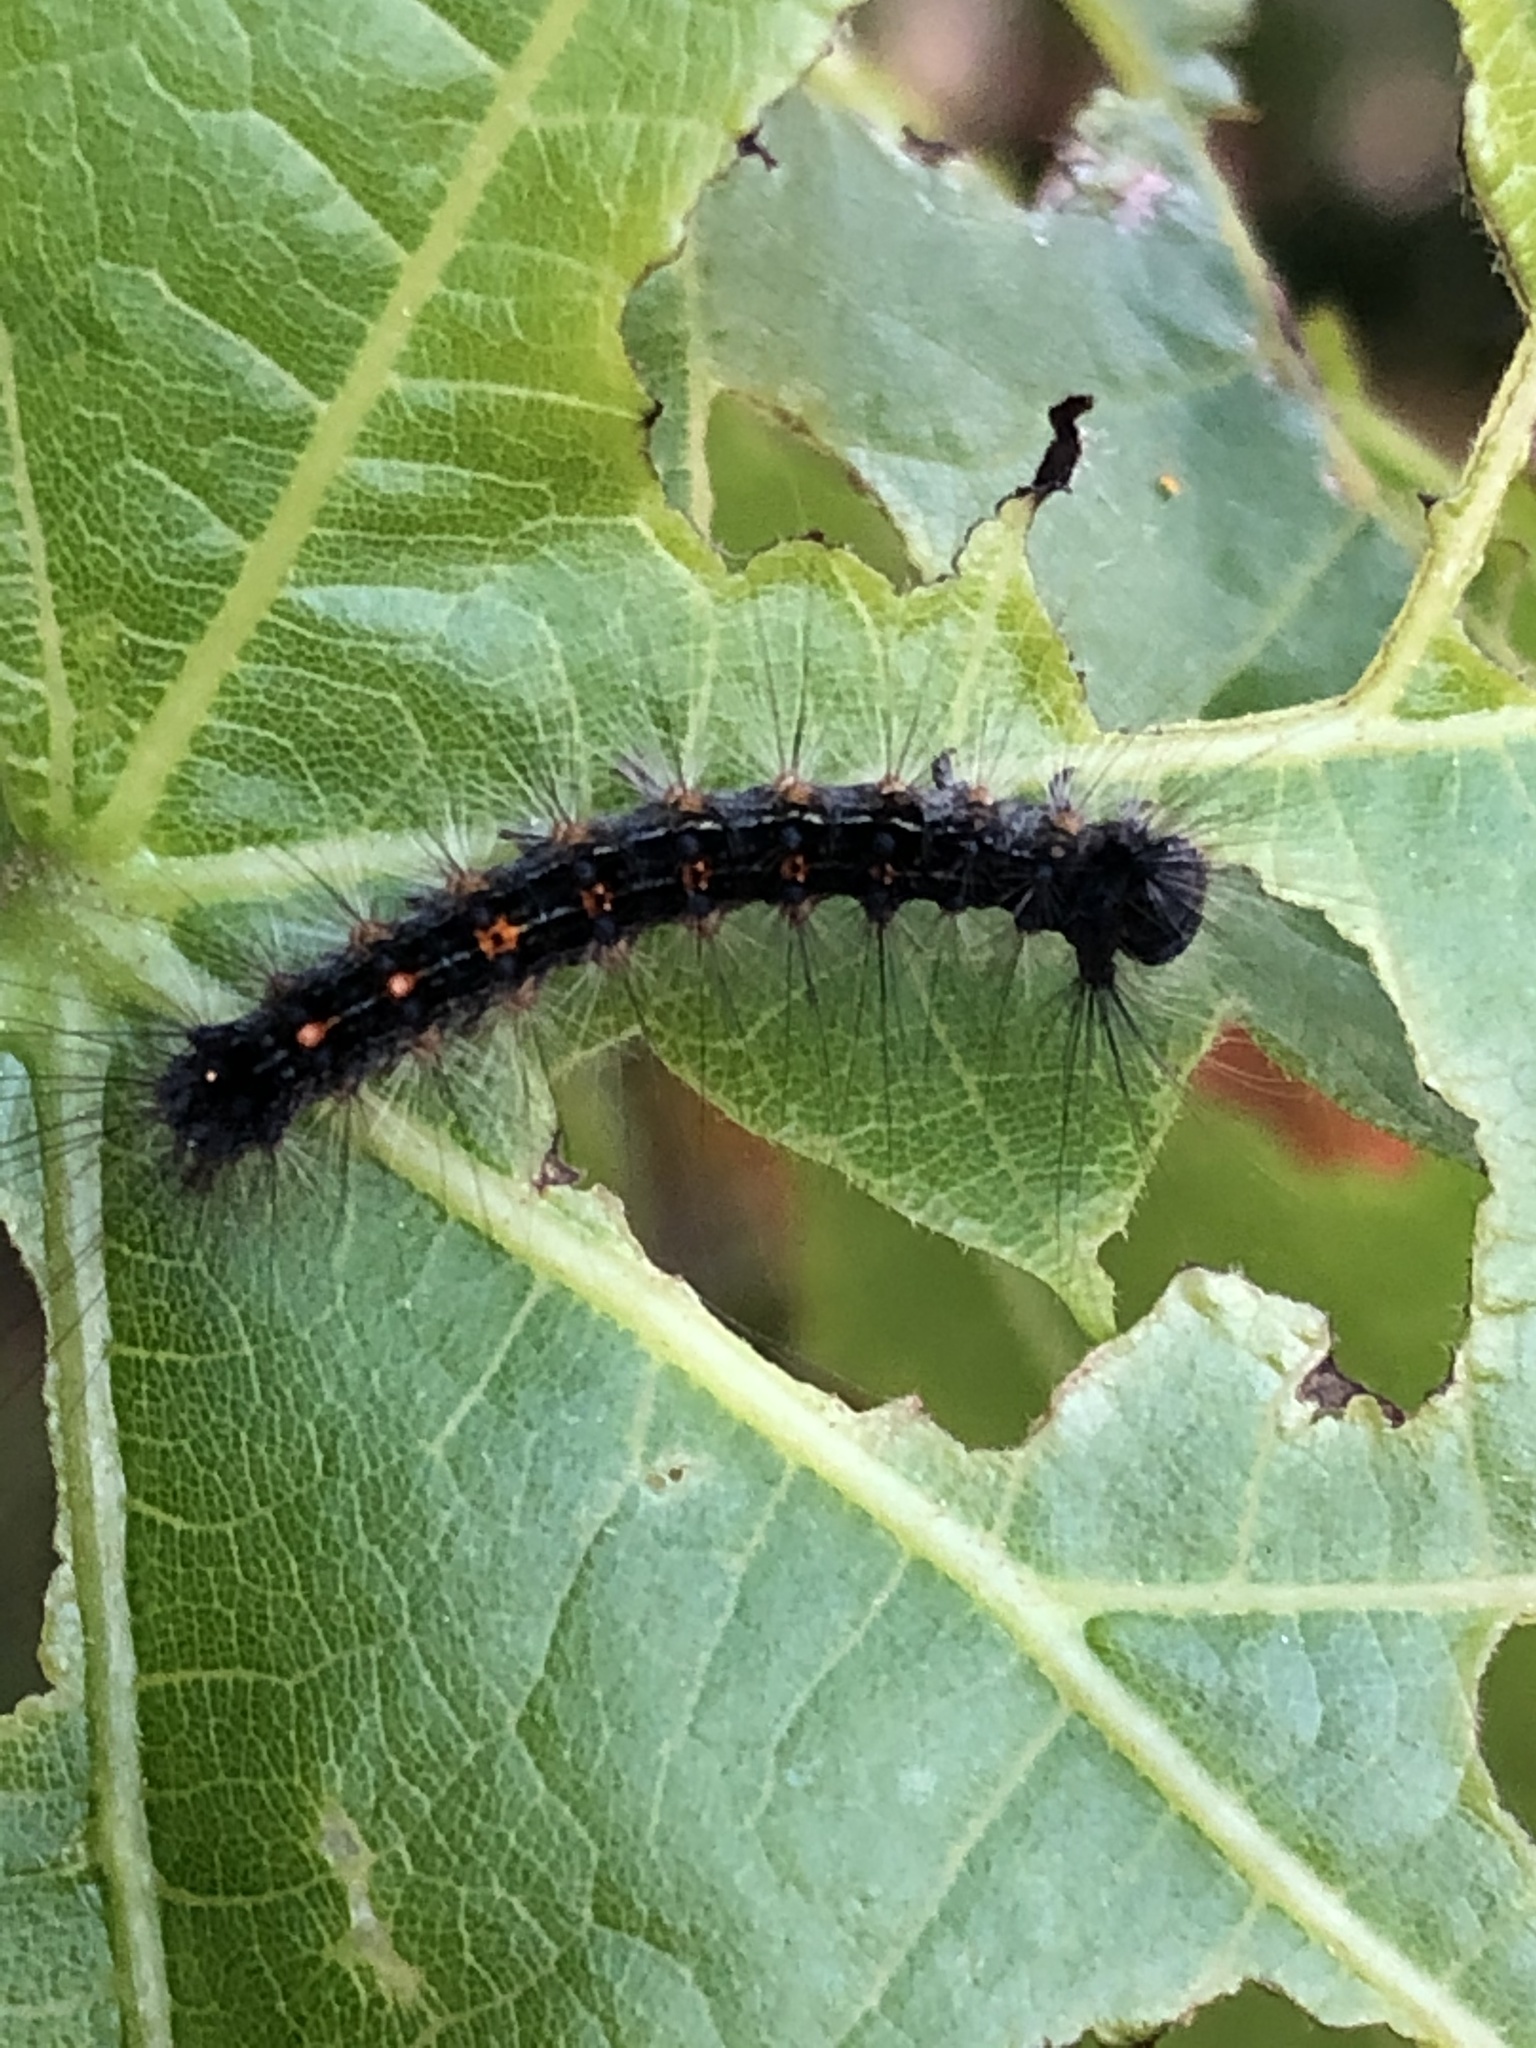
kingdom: Animalia
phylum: Arthropoda
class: Insecta
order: Lepidoptera
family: Erebidae
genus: Lymantria
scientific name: Lymantria dispar
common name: Gypsy moth
